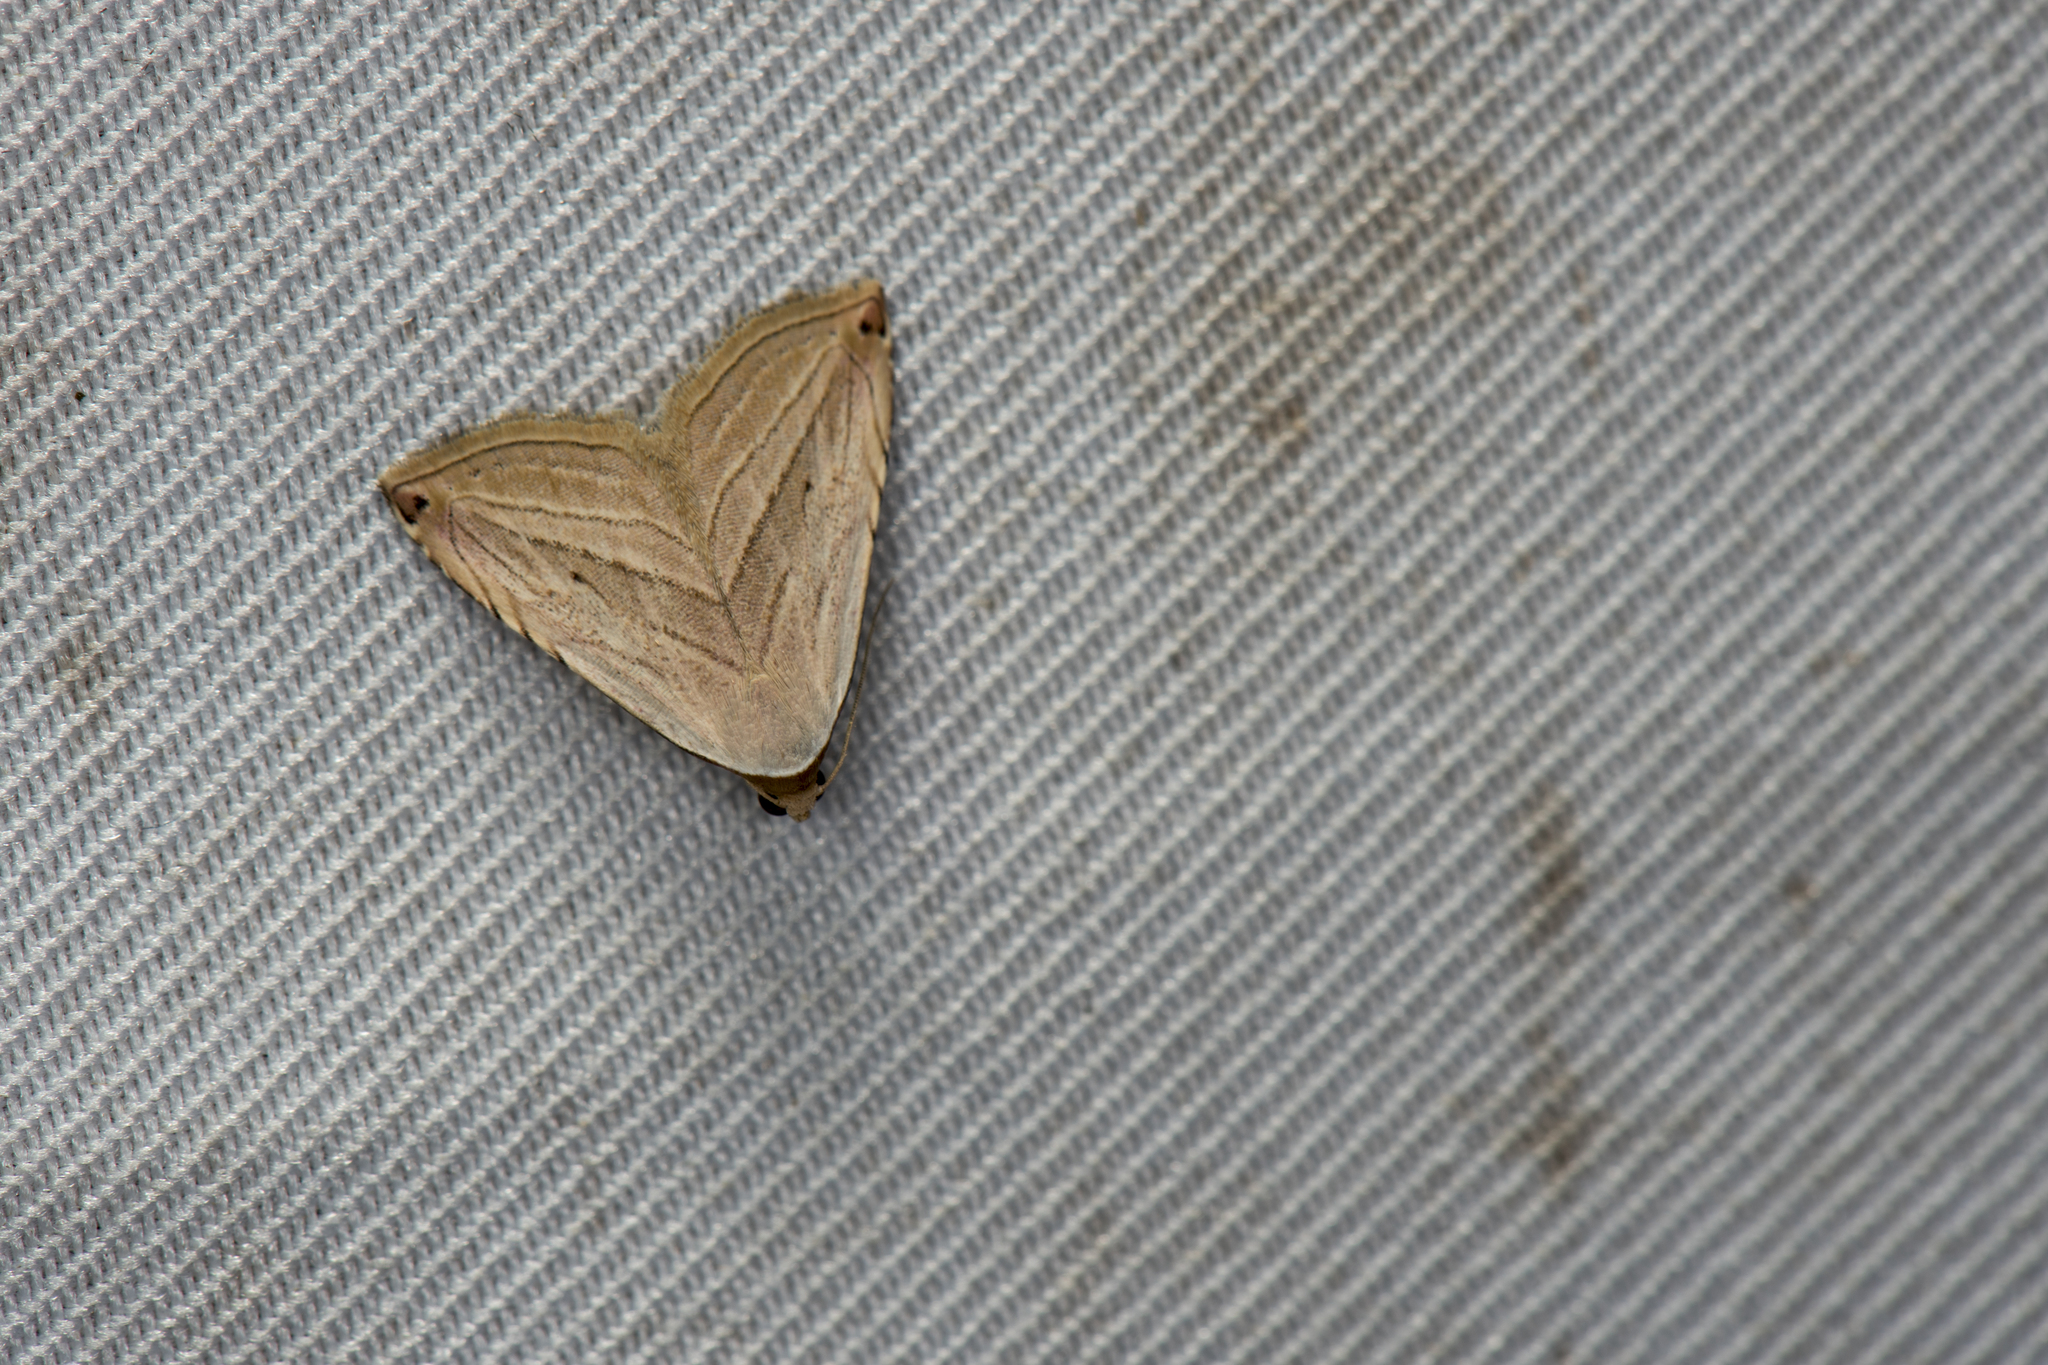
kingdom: Animalia
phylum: Arthropoda
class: Insecta
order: Lepidoptera
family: Noctuidae
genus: Honeyania
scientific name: Honeyania ragusana
